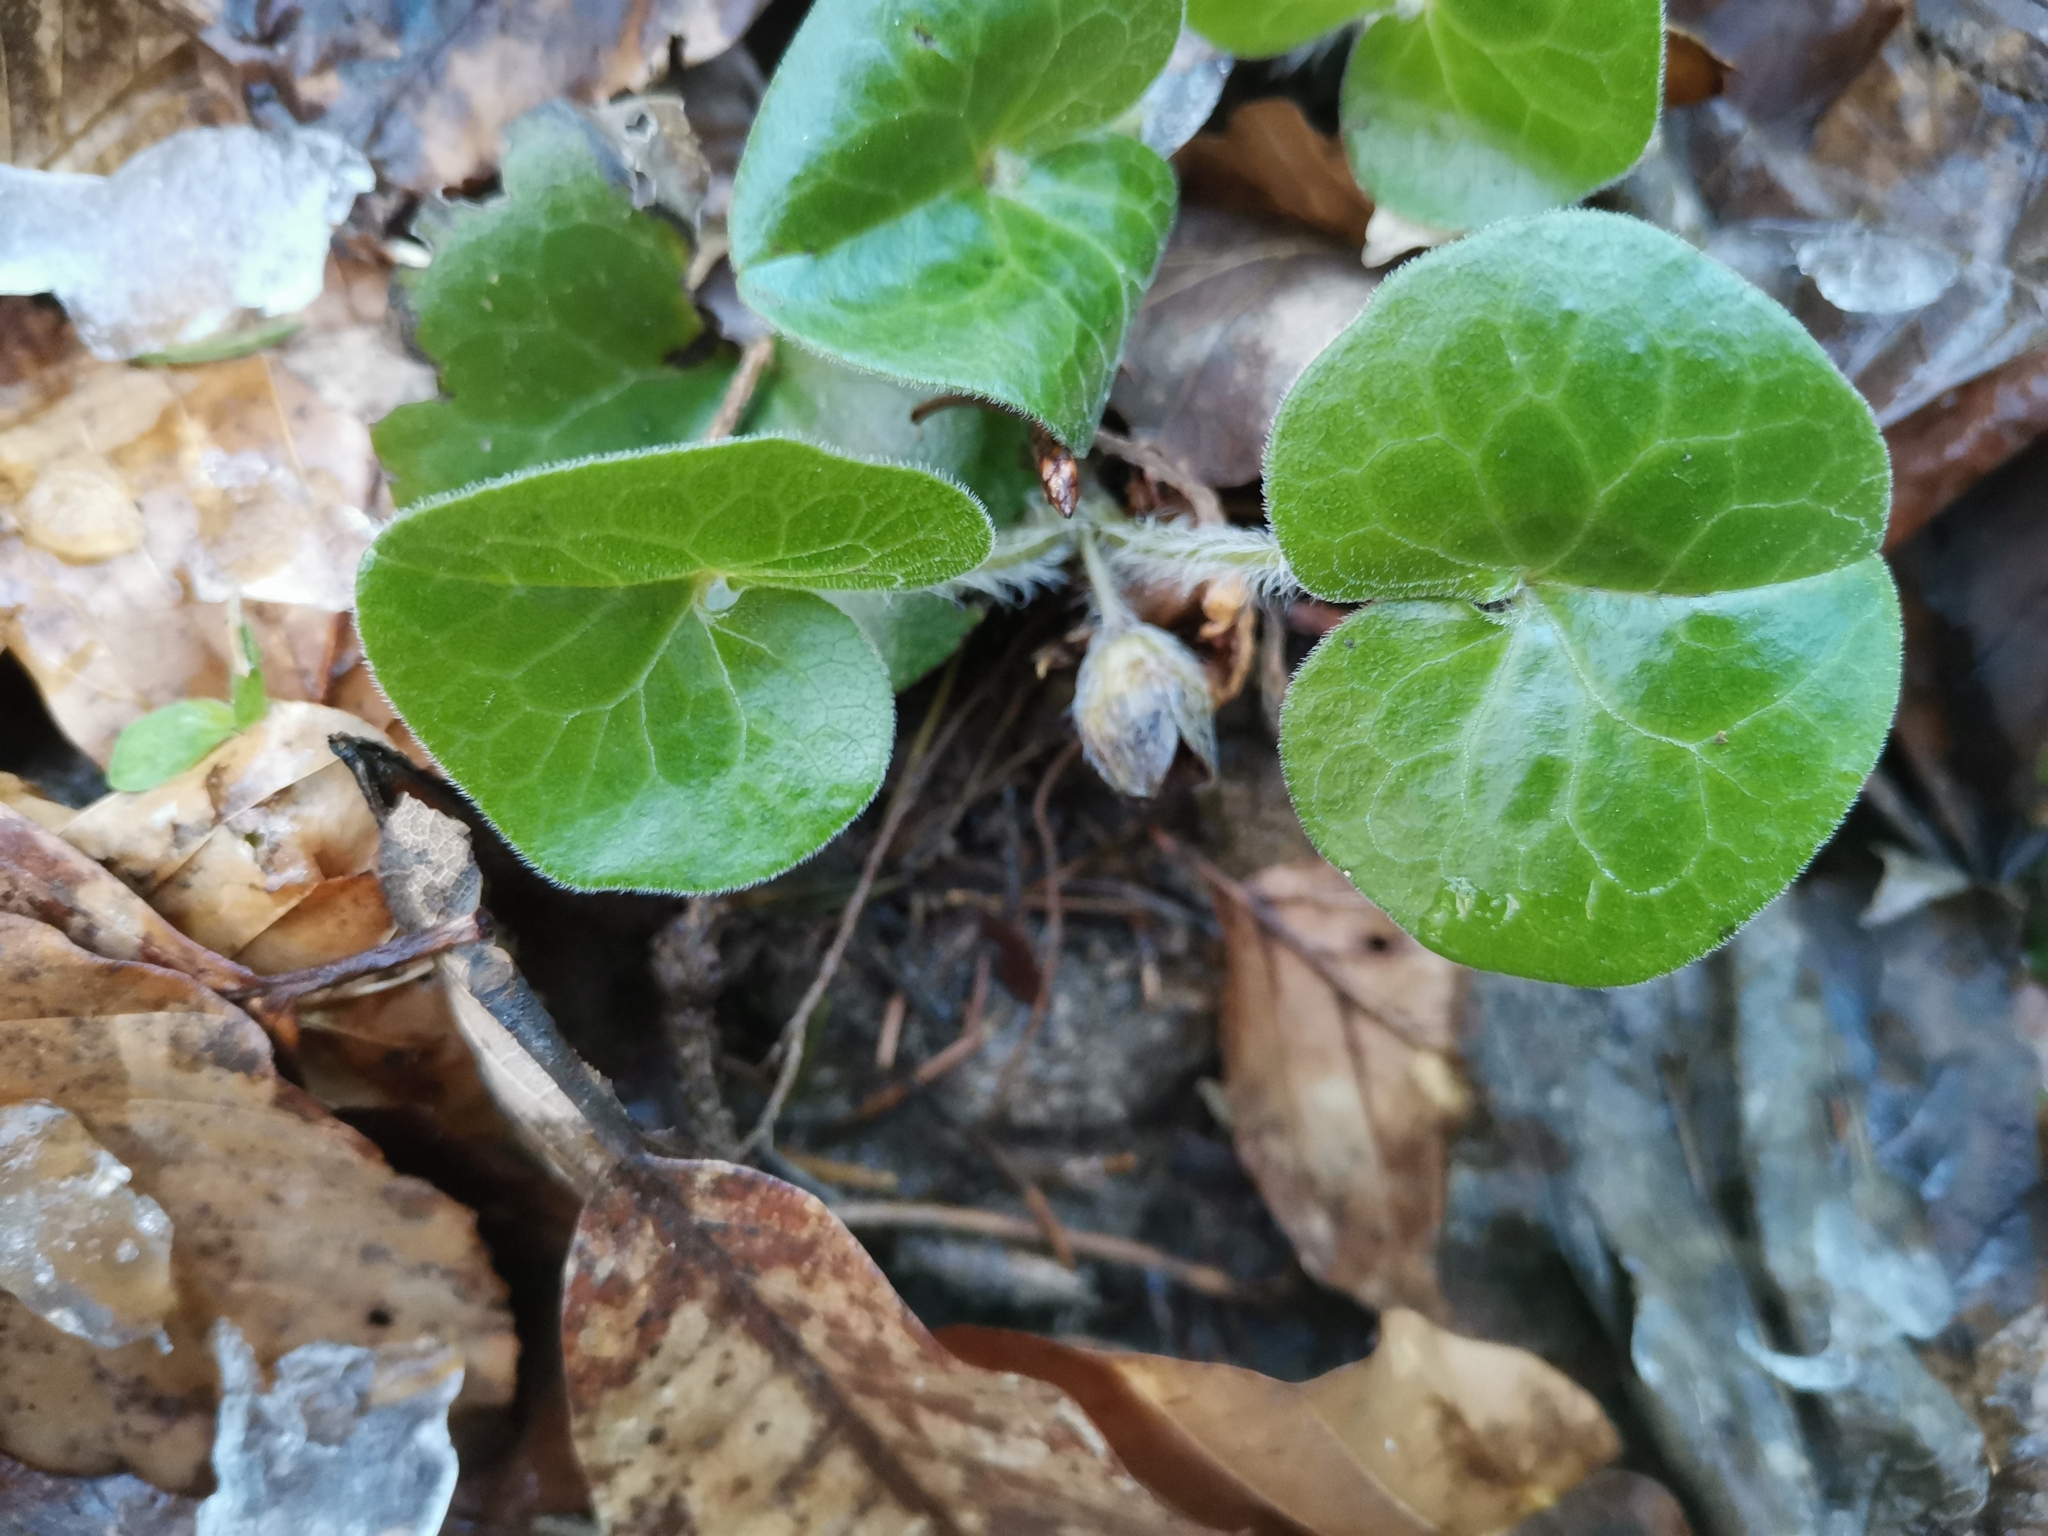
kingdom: Plantae
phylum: Tracheophyta
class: Magnoliopsida
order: Piperales
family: Aristolochiaceae
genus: Asarum
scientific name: Asarum europaeum
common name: Asarabacca
